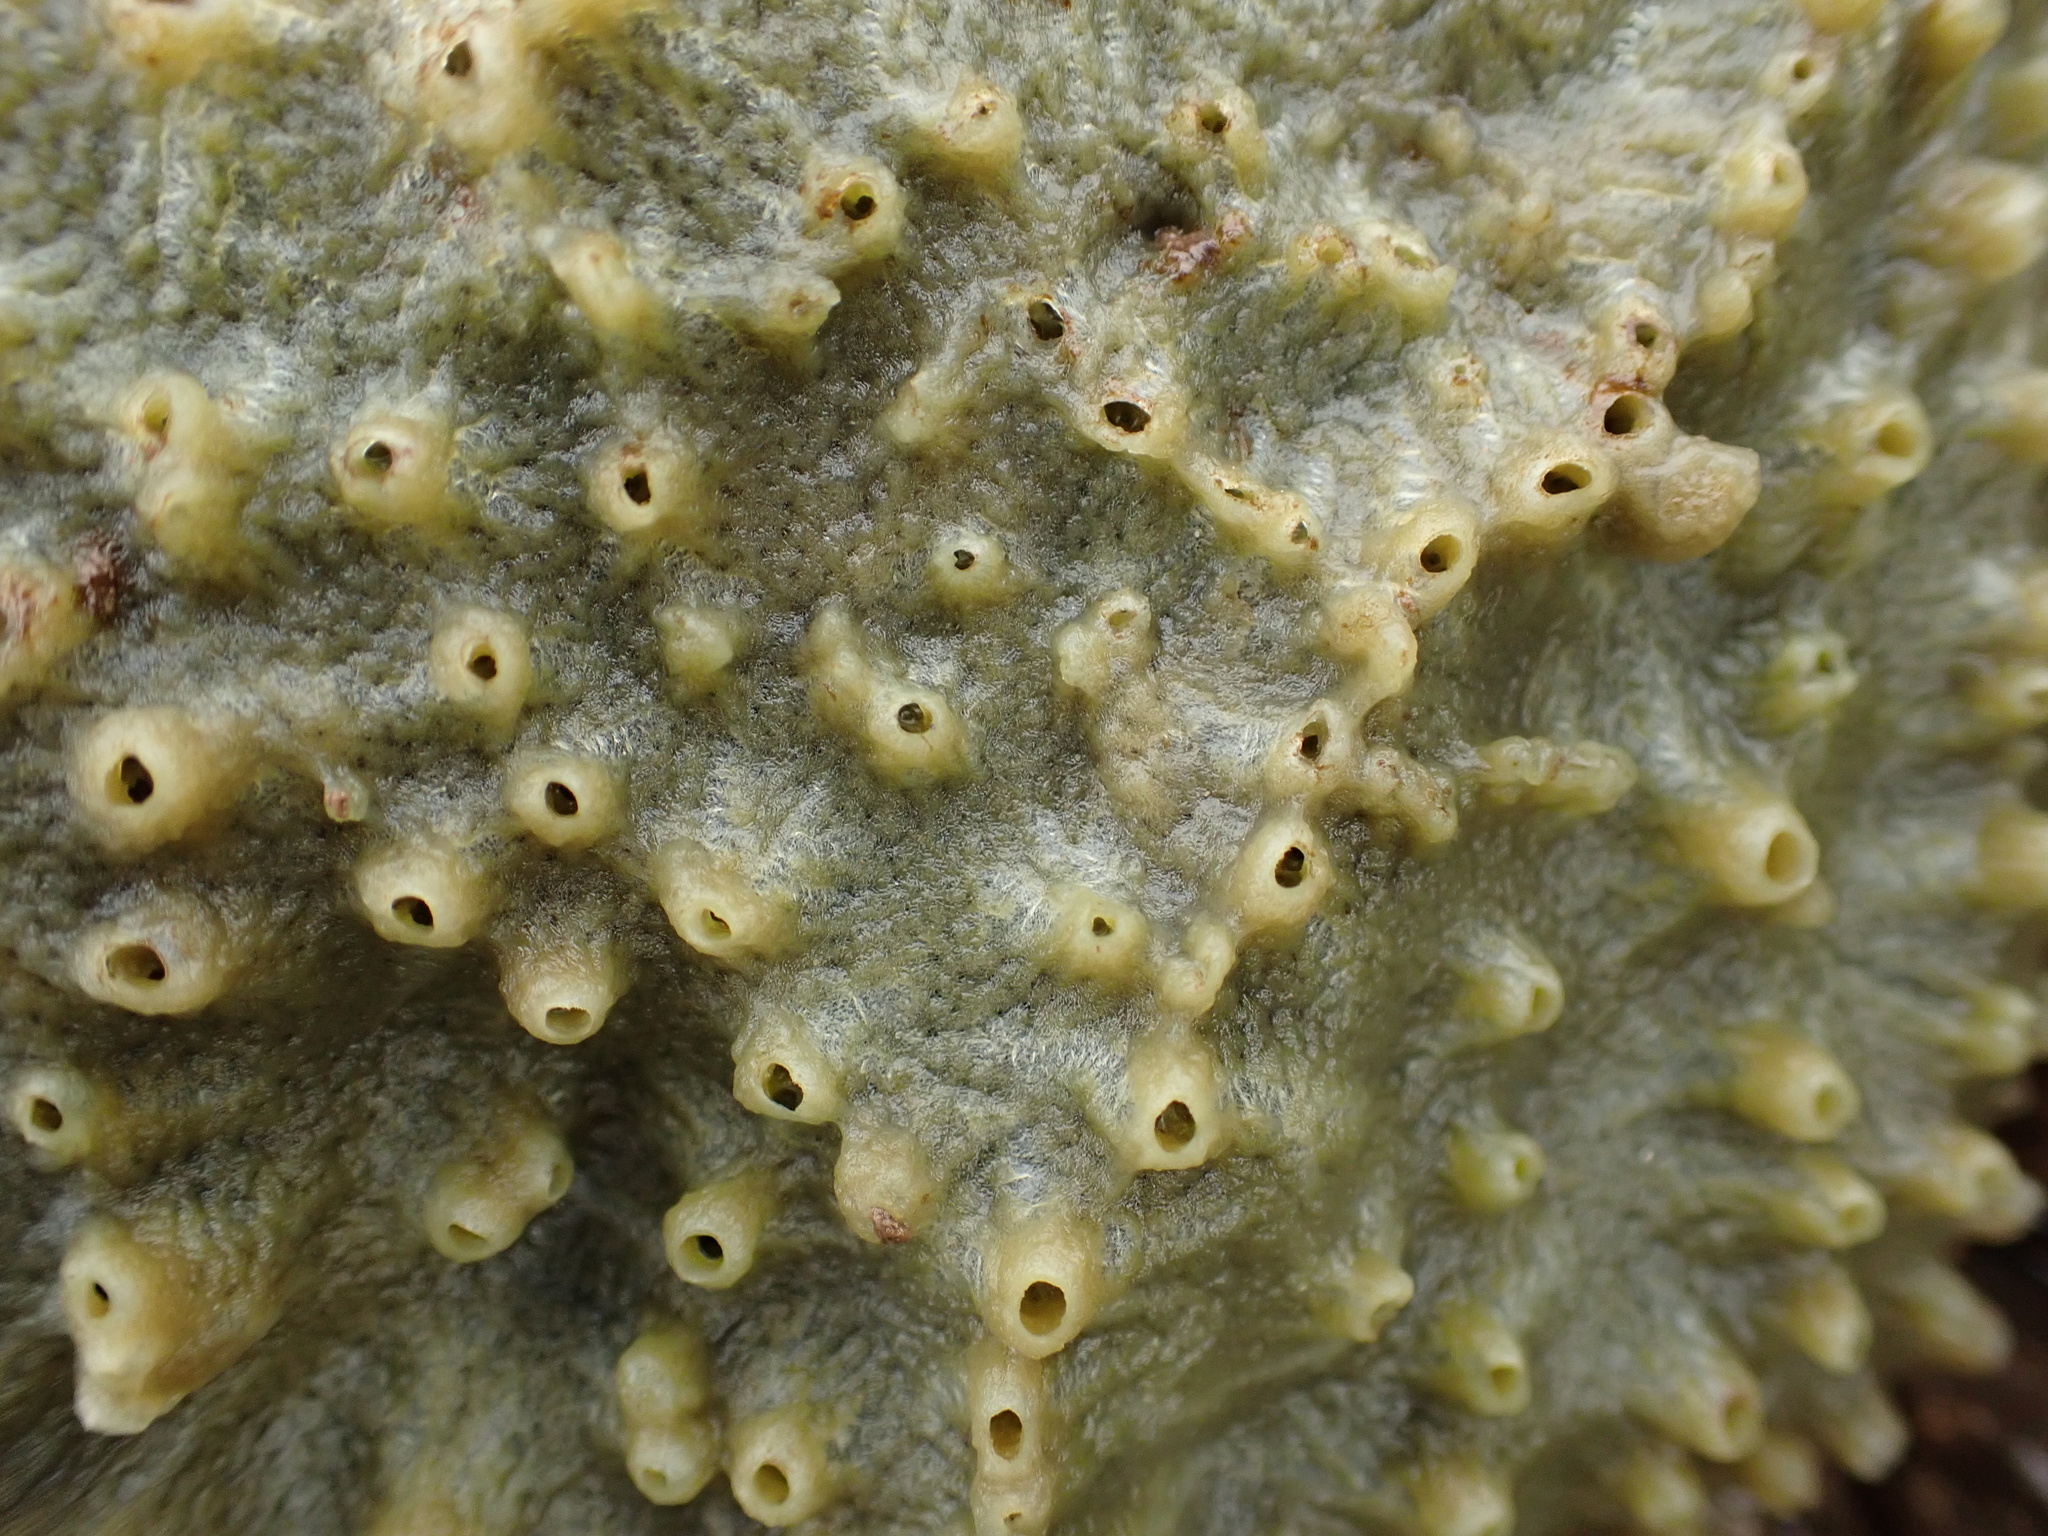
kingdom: Animalia
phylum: Porifera
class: Demospongiae
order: Suberitida
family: Halichondriidae
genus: Halichondria
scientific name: Halichondria panicea
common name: Breadcrumb sponge
